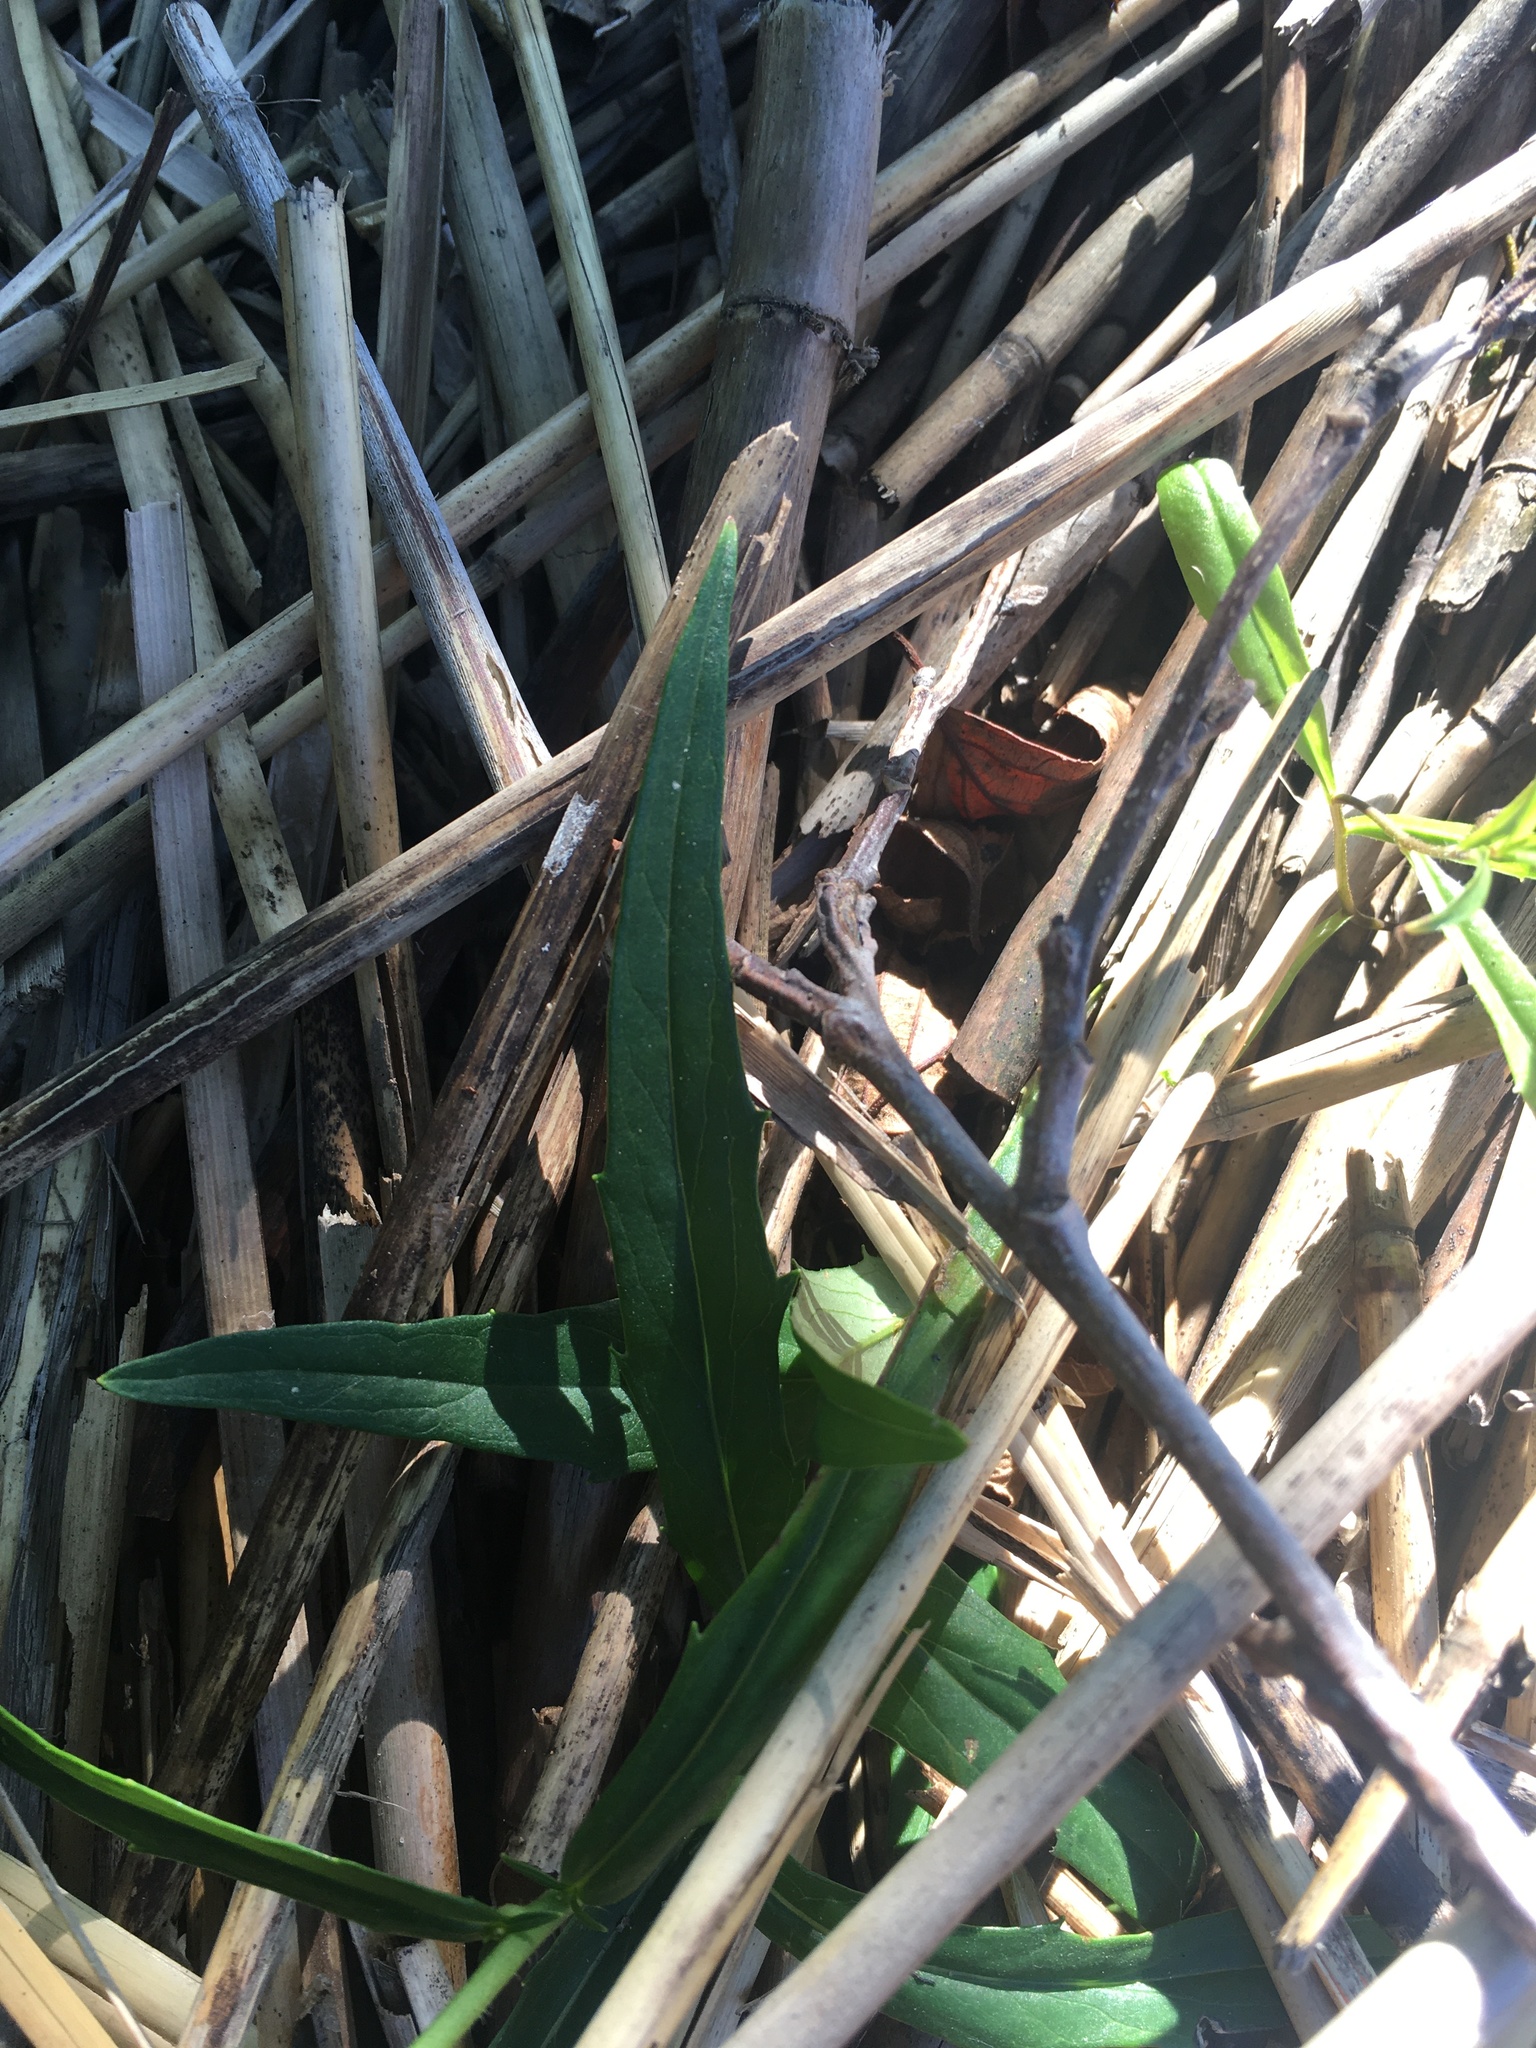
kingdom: Plantae
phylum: Tracheophyta
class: Magnoliopsida
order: Asterales
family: Asteraceae
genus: Hieracium
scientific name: Hieracium umbellatum
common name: Northern hawkweed
